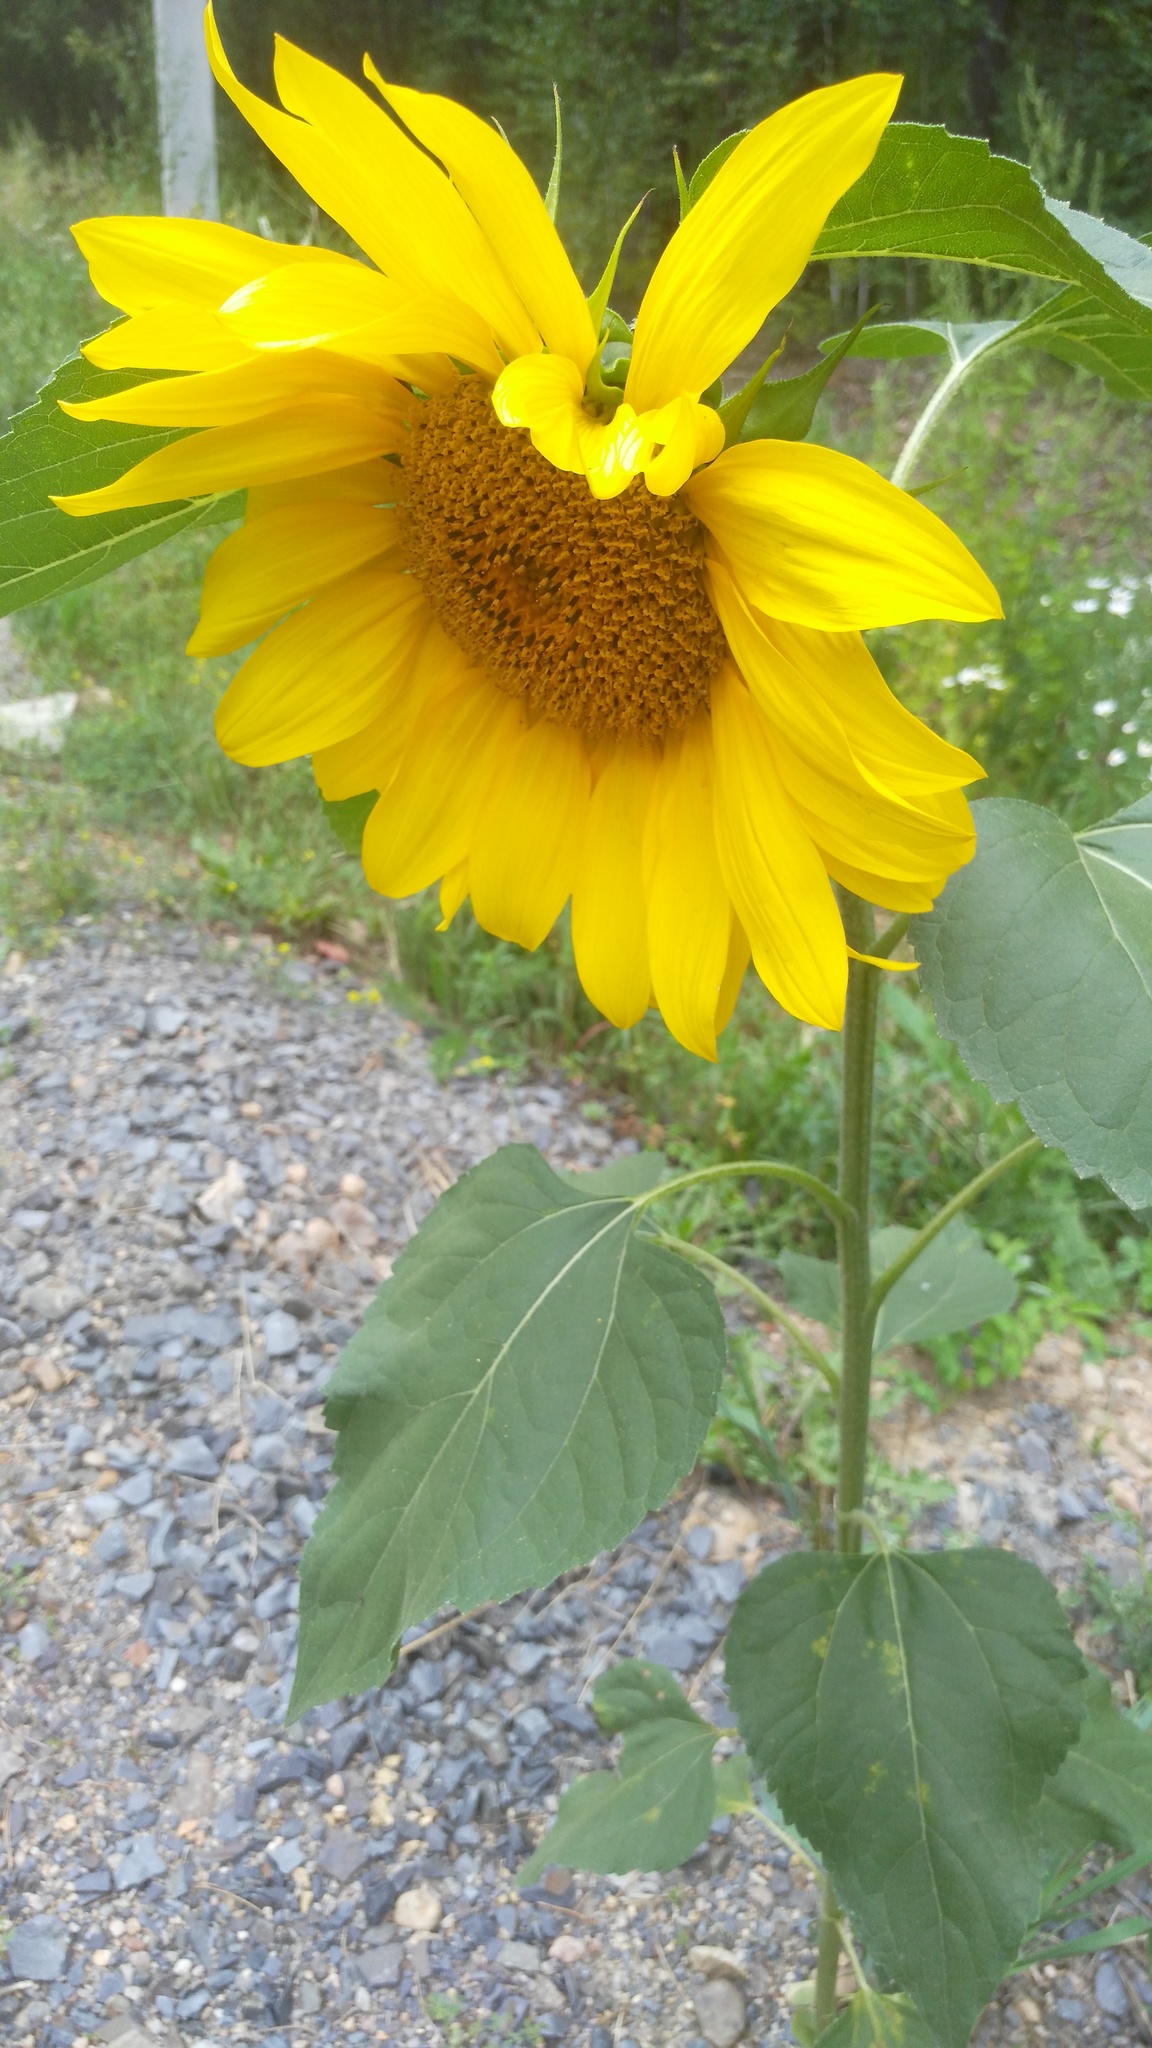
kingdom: Plantae
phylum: Tracheophyta
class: Magnoliopsida
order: Asterales
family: Asteraceae
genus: Helianthus
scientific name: Helianthus annuus
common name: Sunflower
